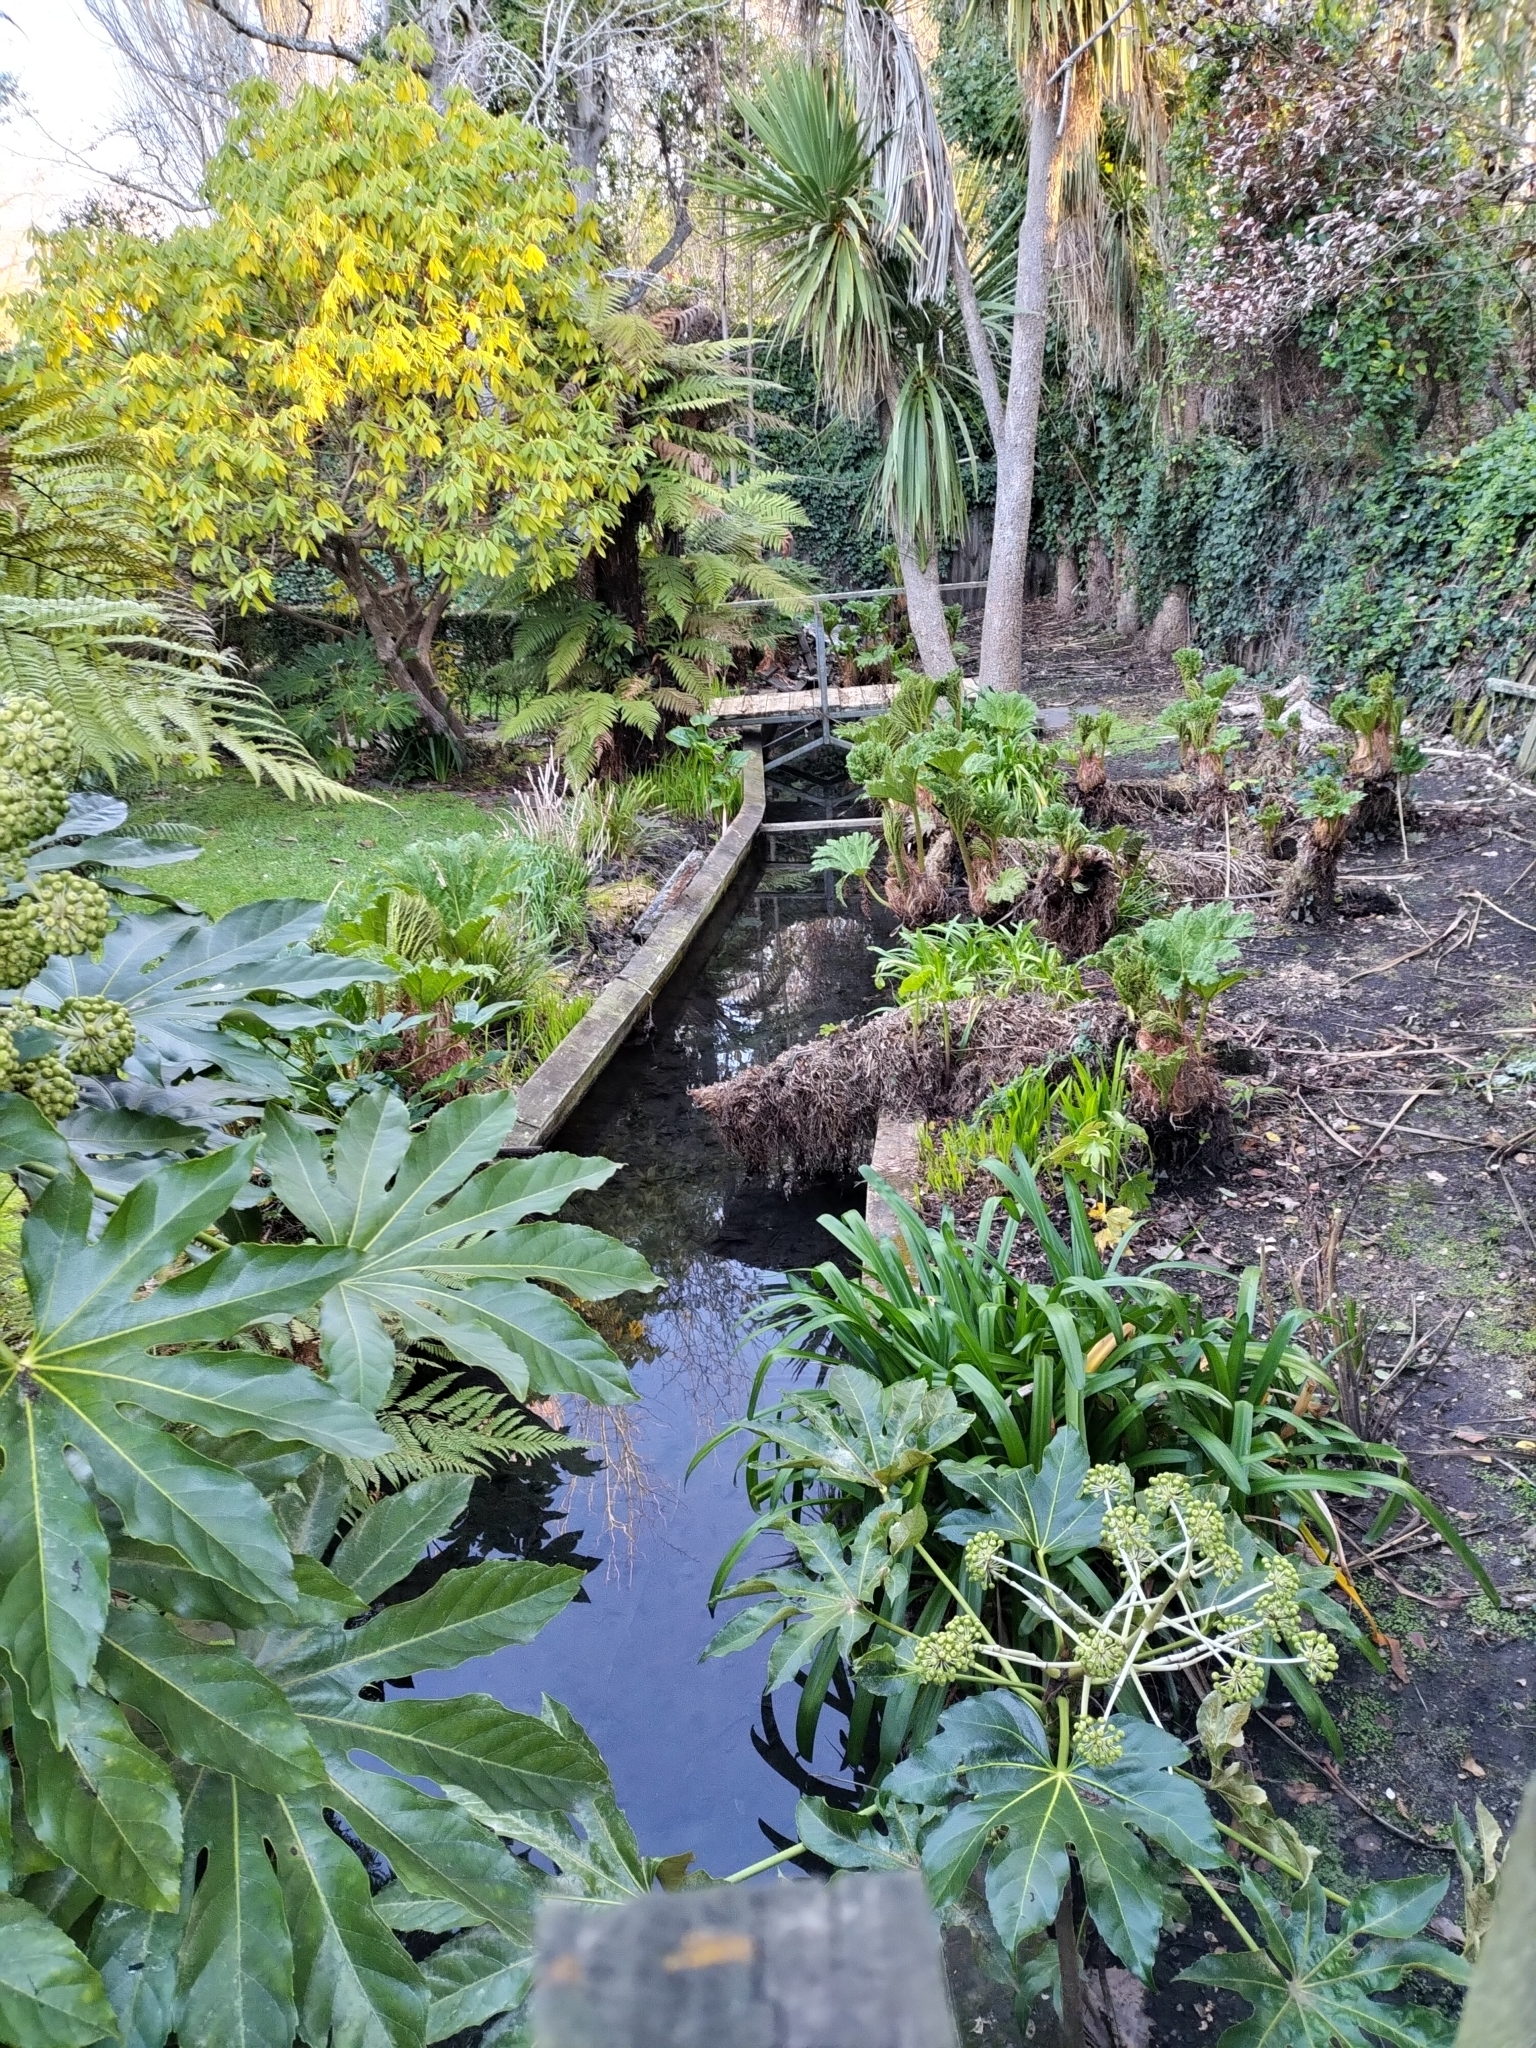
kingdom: Plantae
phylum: Tracheophyta
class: Magnoliopsida
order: Gunnerales
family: Gunneraceae
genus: Gunnera
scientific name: Gunnera tinctoria
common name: Giant-rhubarb
